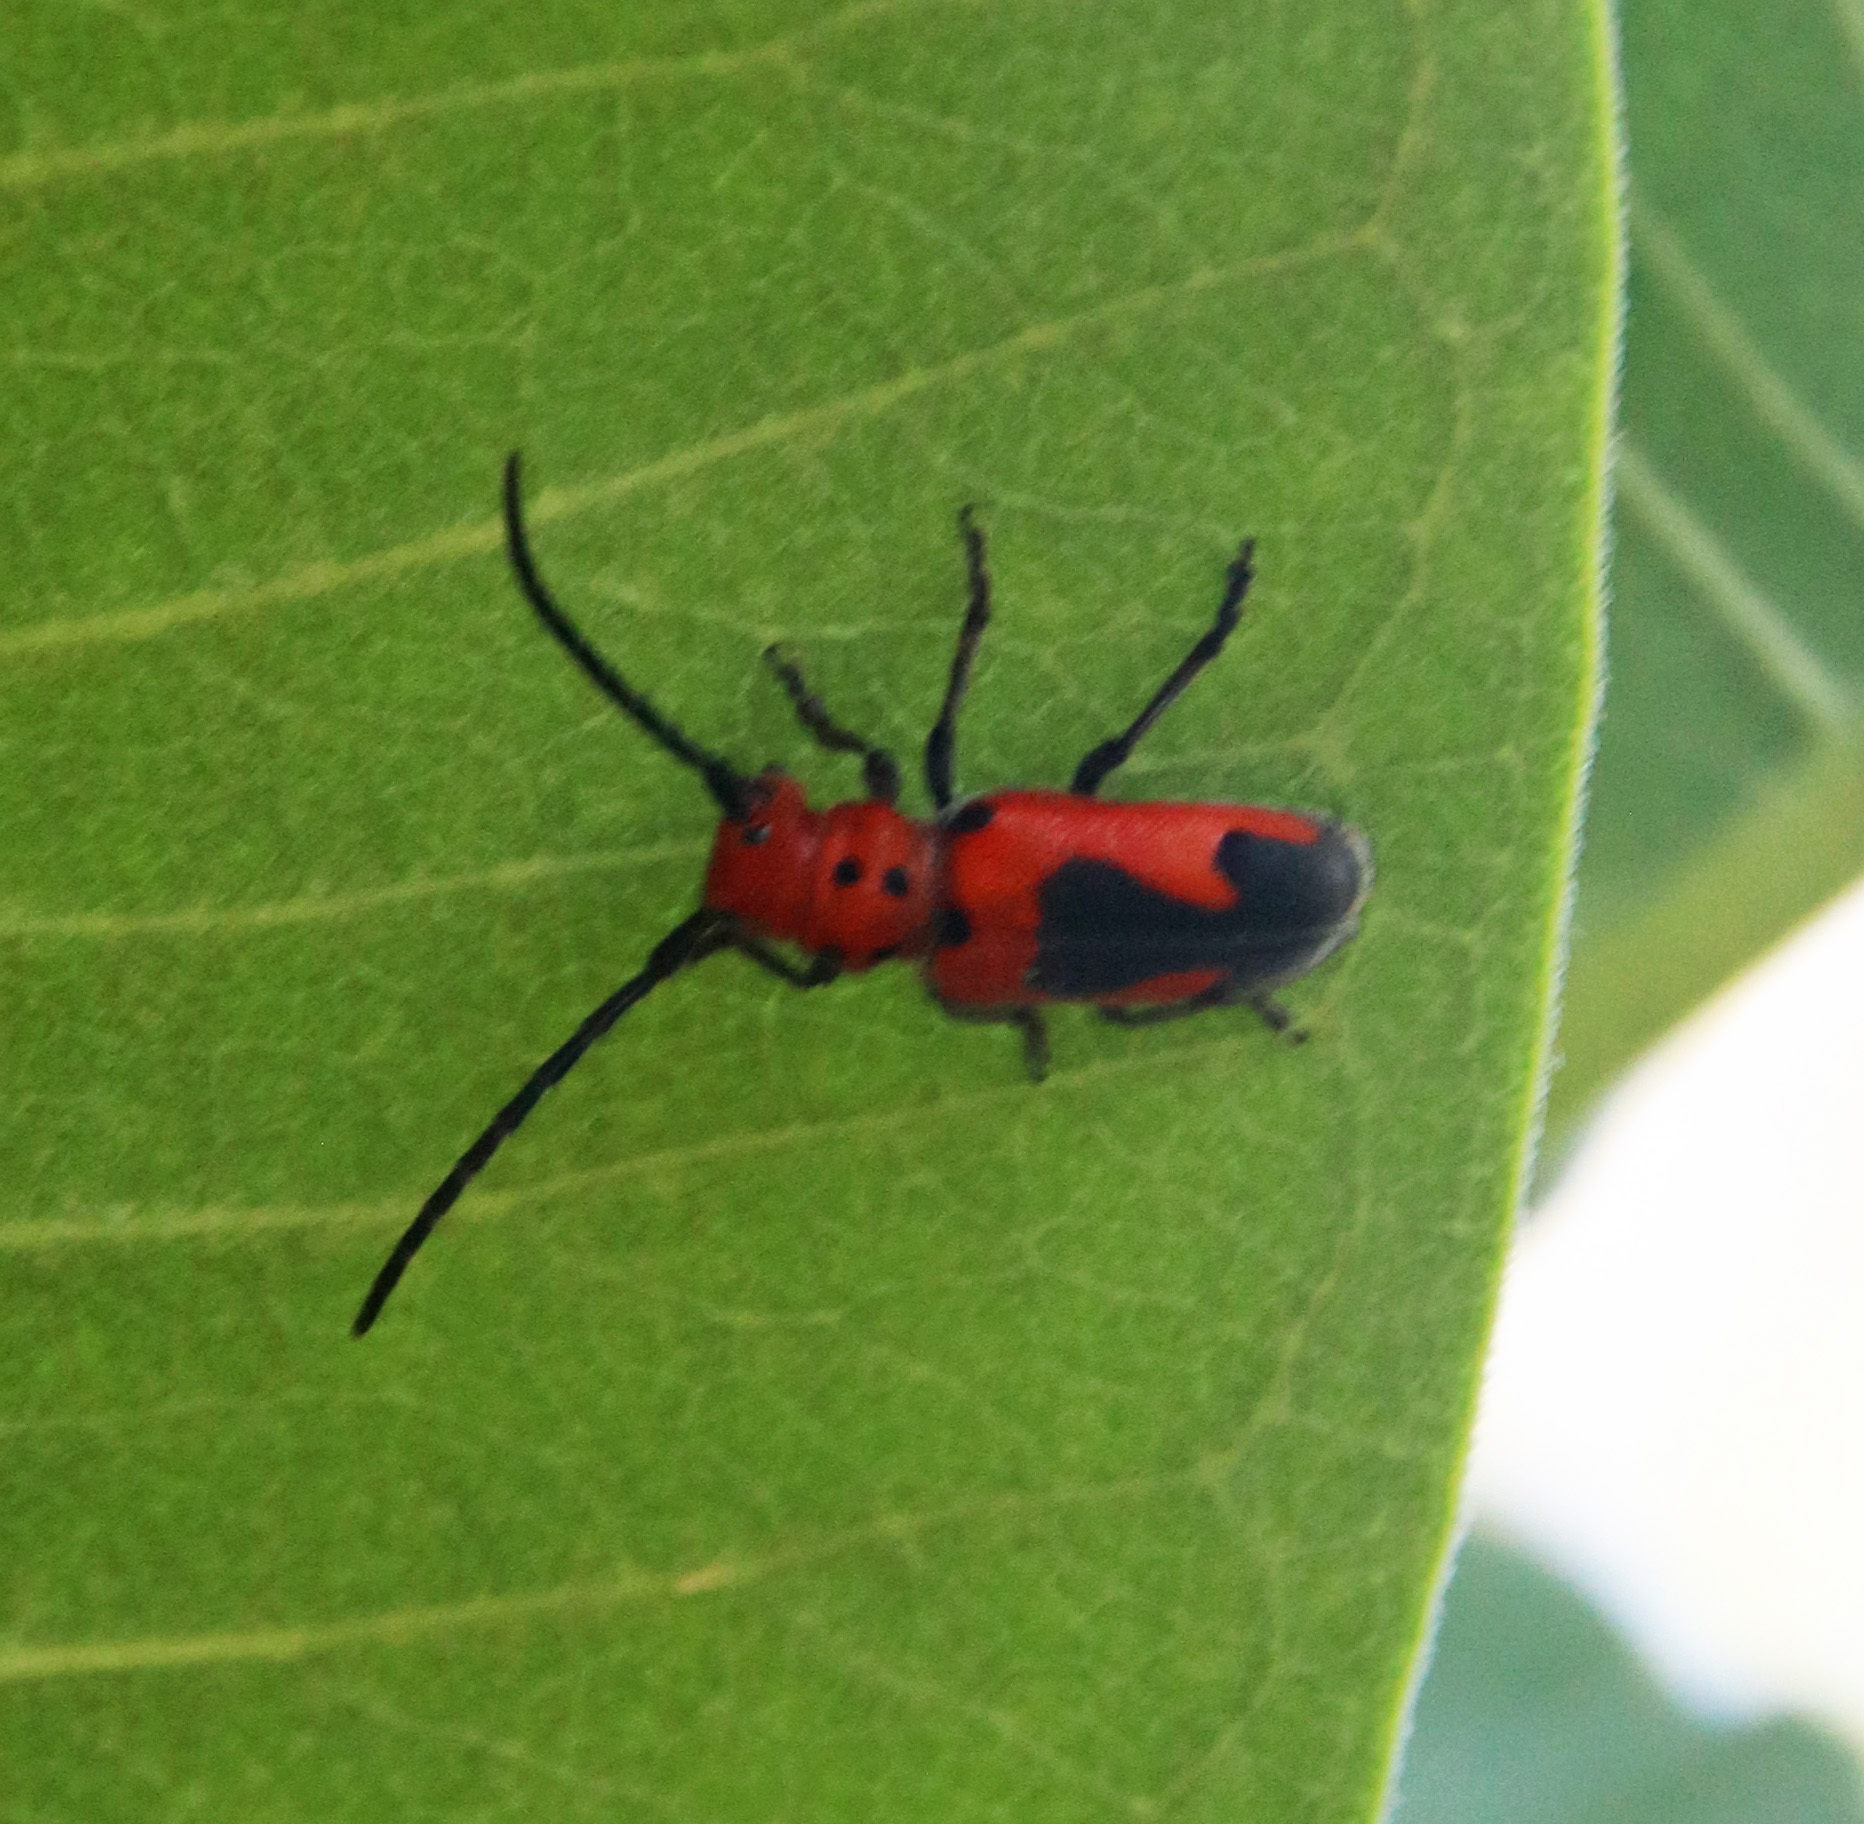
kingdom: Animalia
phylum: Arthropoda
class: Insecta
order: Coleoptera
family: Cerambycidae
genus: Tetraopes
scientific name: Tetraopes melanurus
